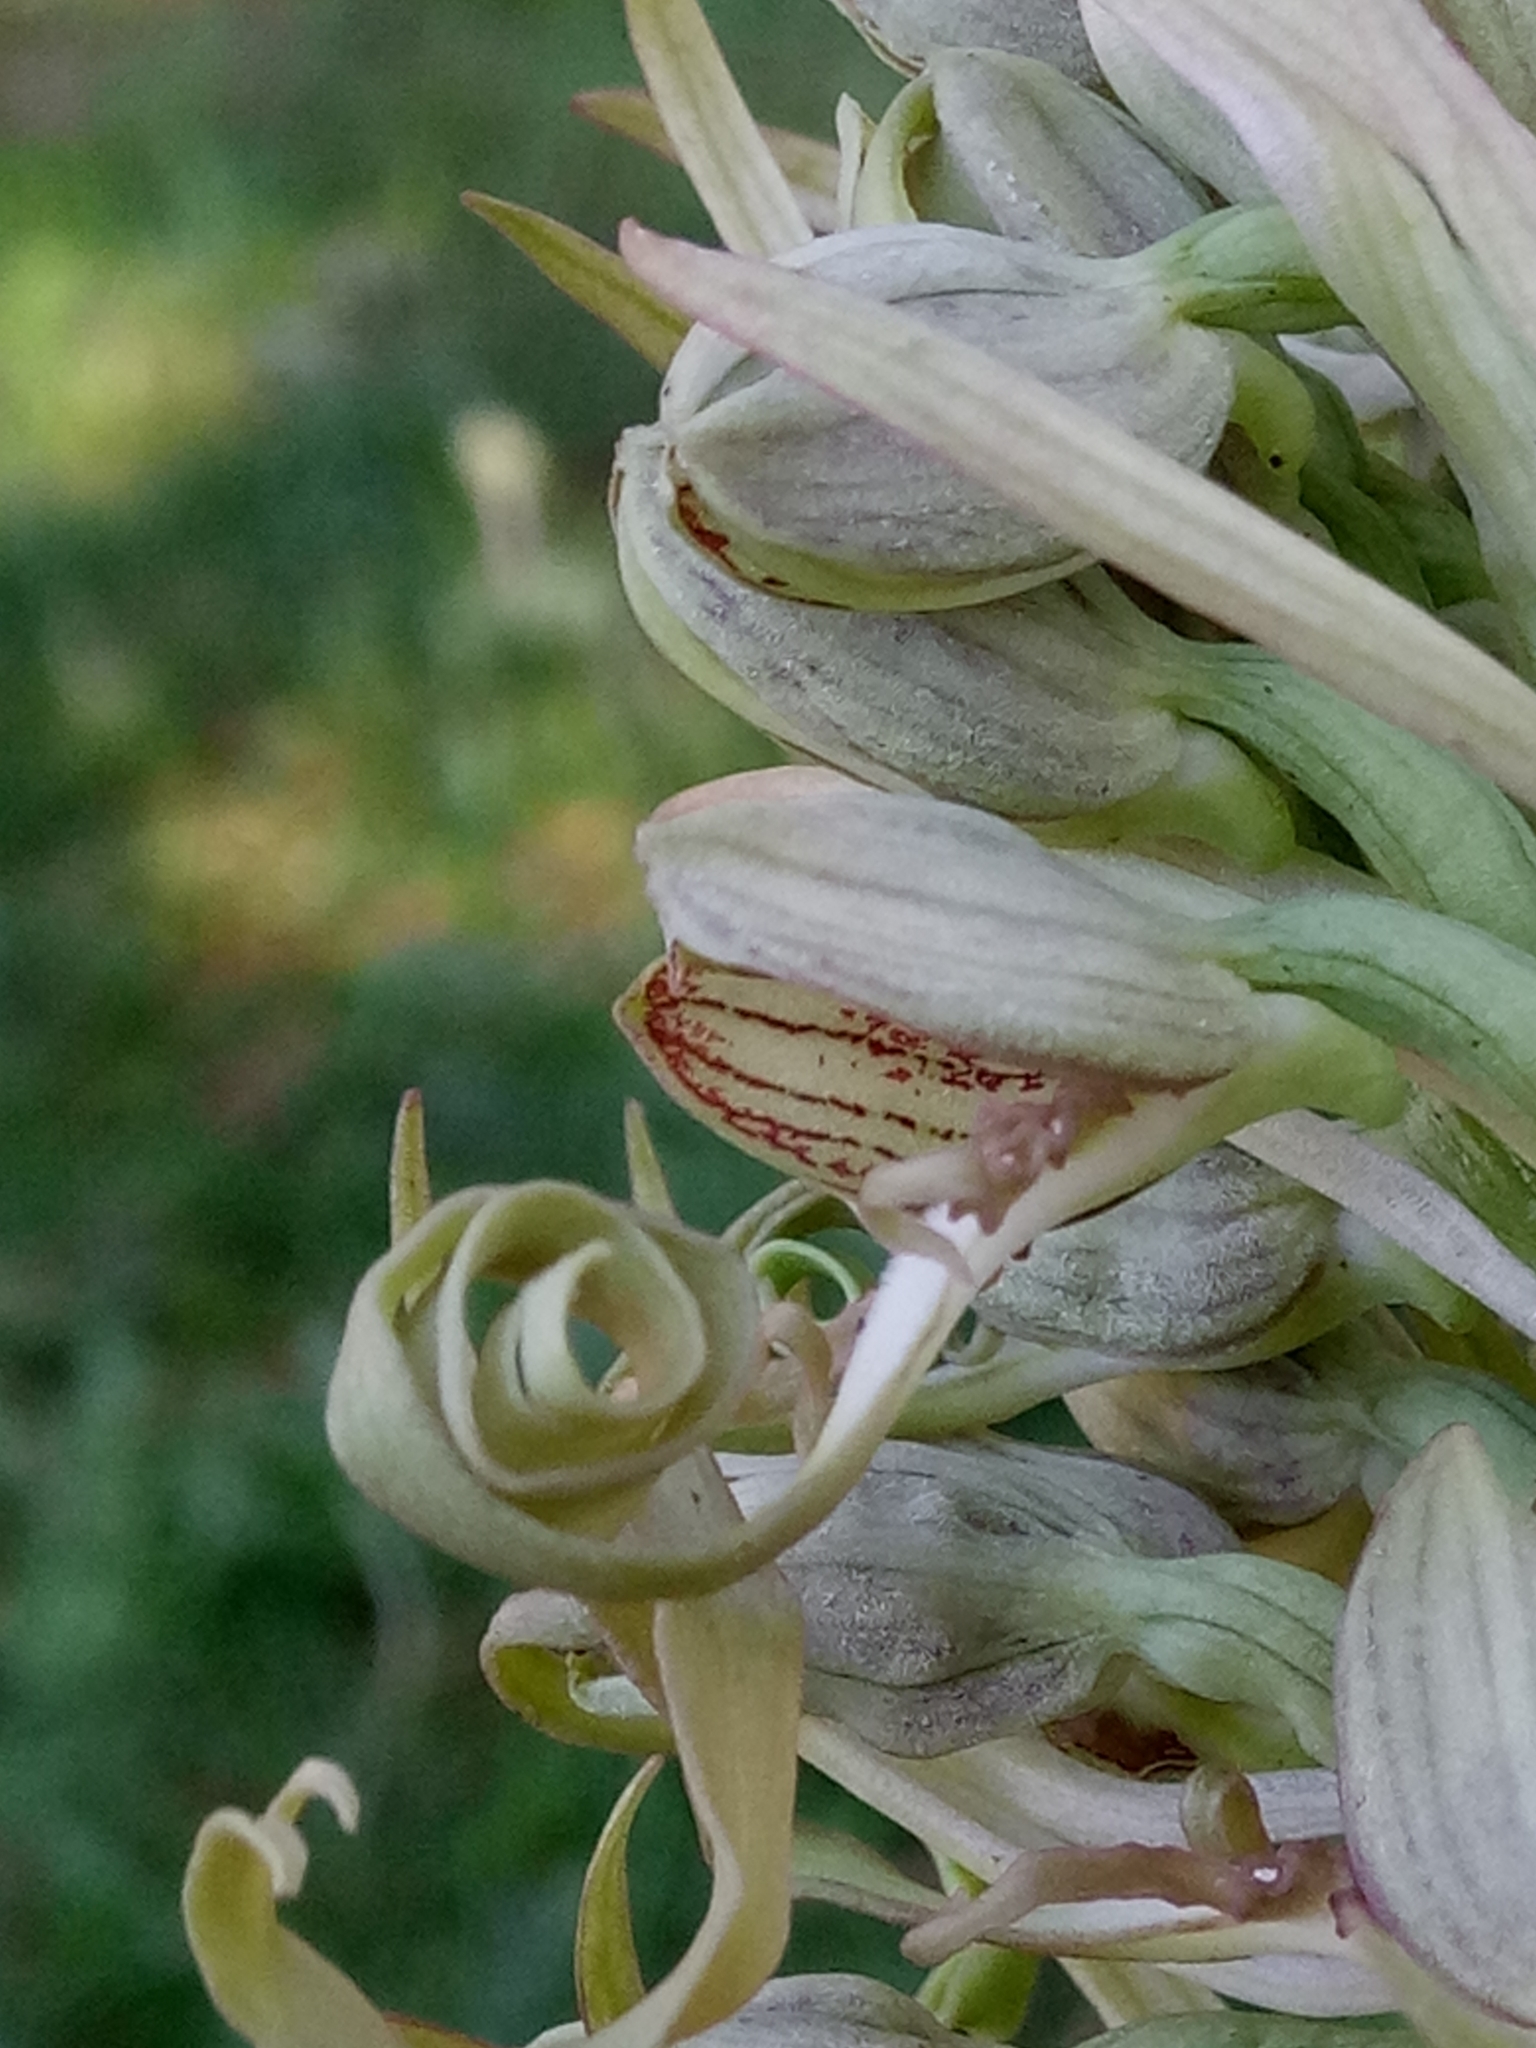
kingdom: Plantae
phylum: Tracheophyta
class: Liliopsida
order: Asparagales
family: Orchidaceae
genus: Himantoglossum
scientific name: Himantoglossum hircinum
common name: Lizard orchid
